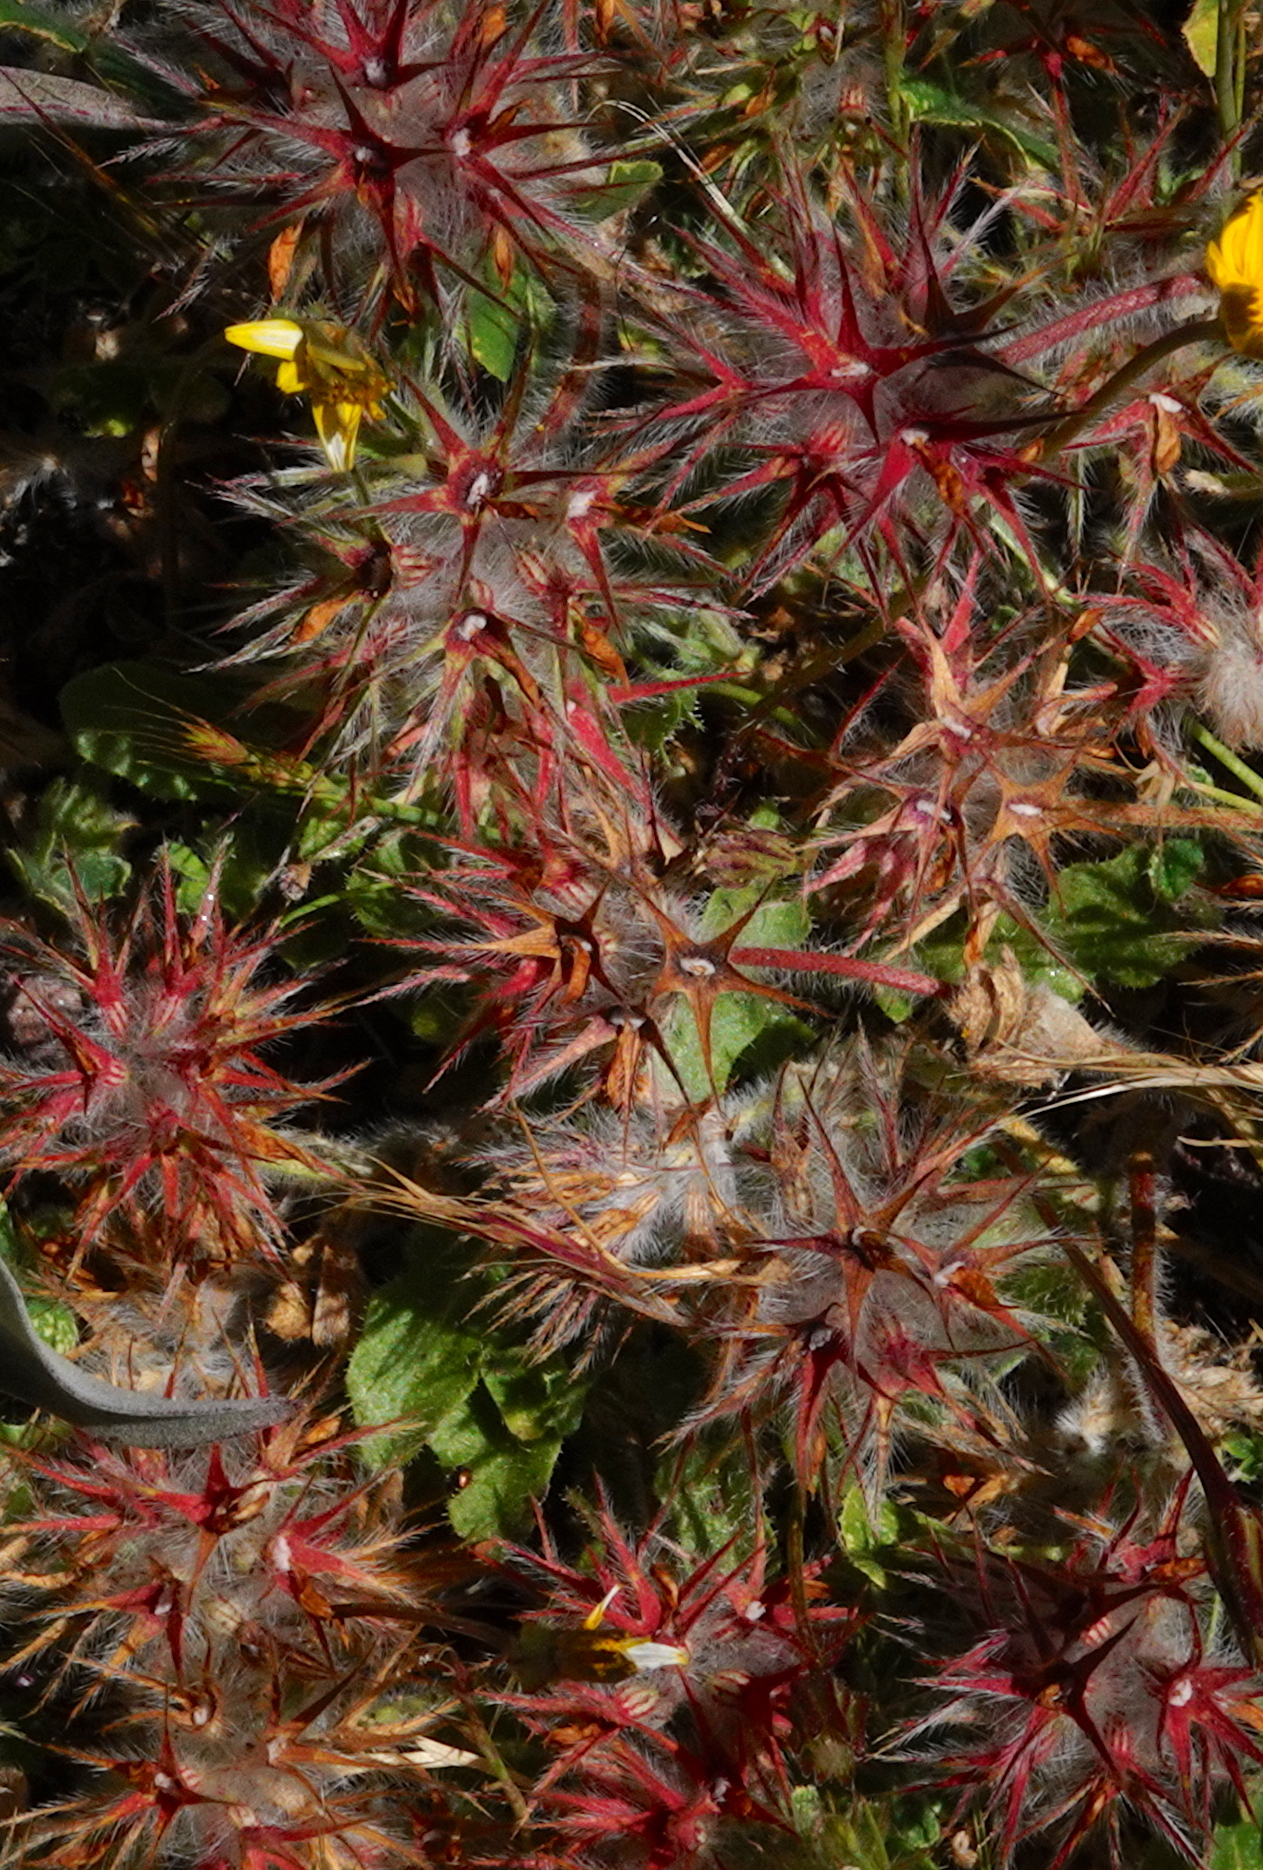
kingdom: Plantae
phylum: Tracheophyta
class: Magnoliopsida
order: Fabales
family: Fabaceae
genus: Trifolium
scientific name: Trifolium stellatum
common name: Starry clover
